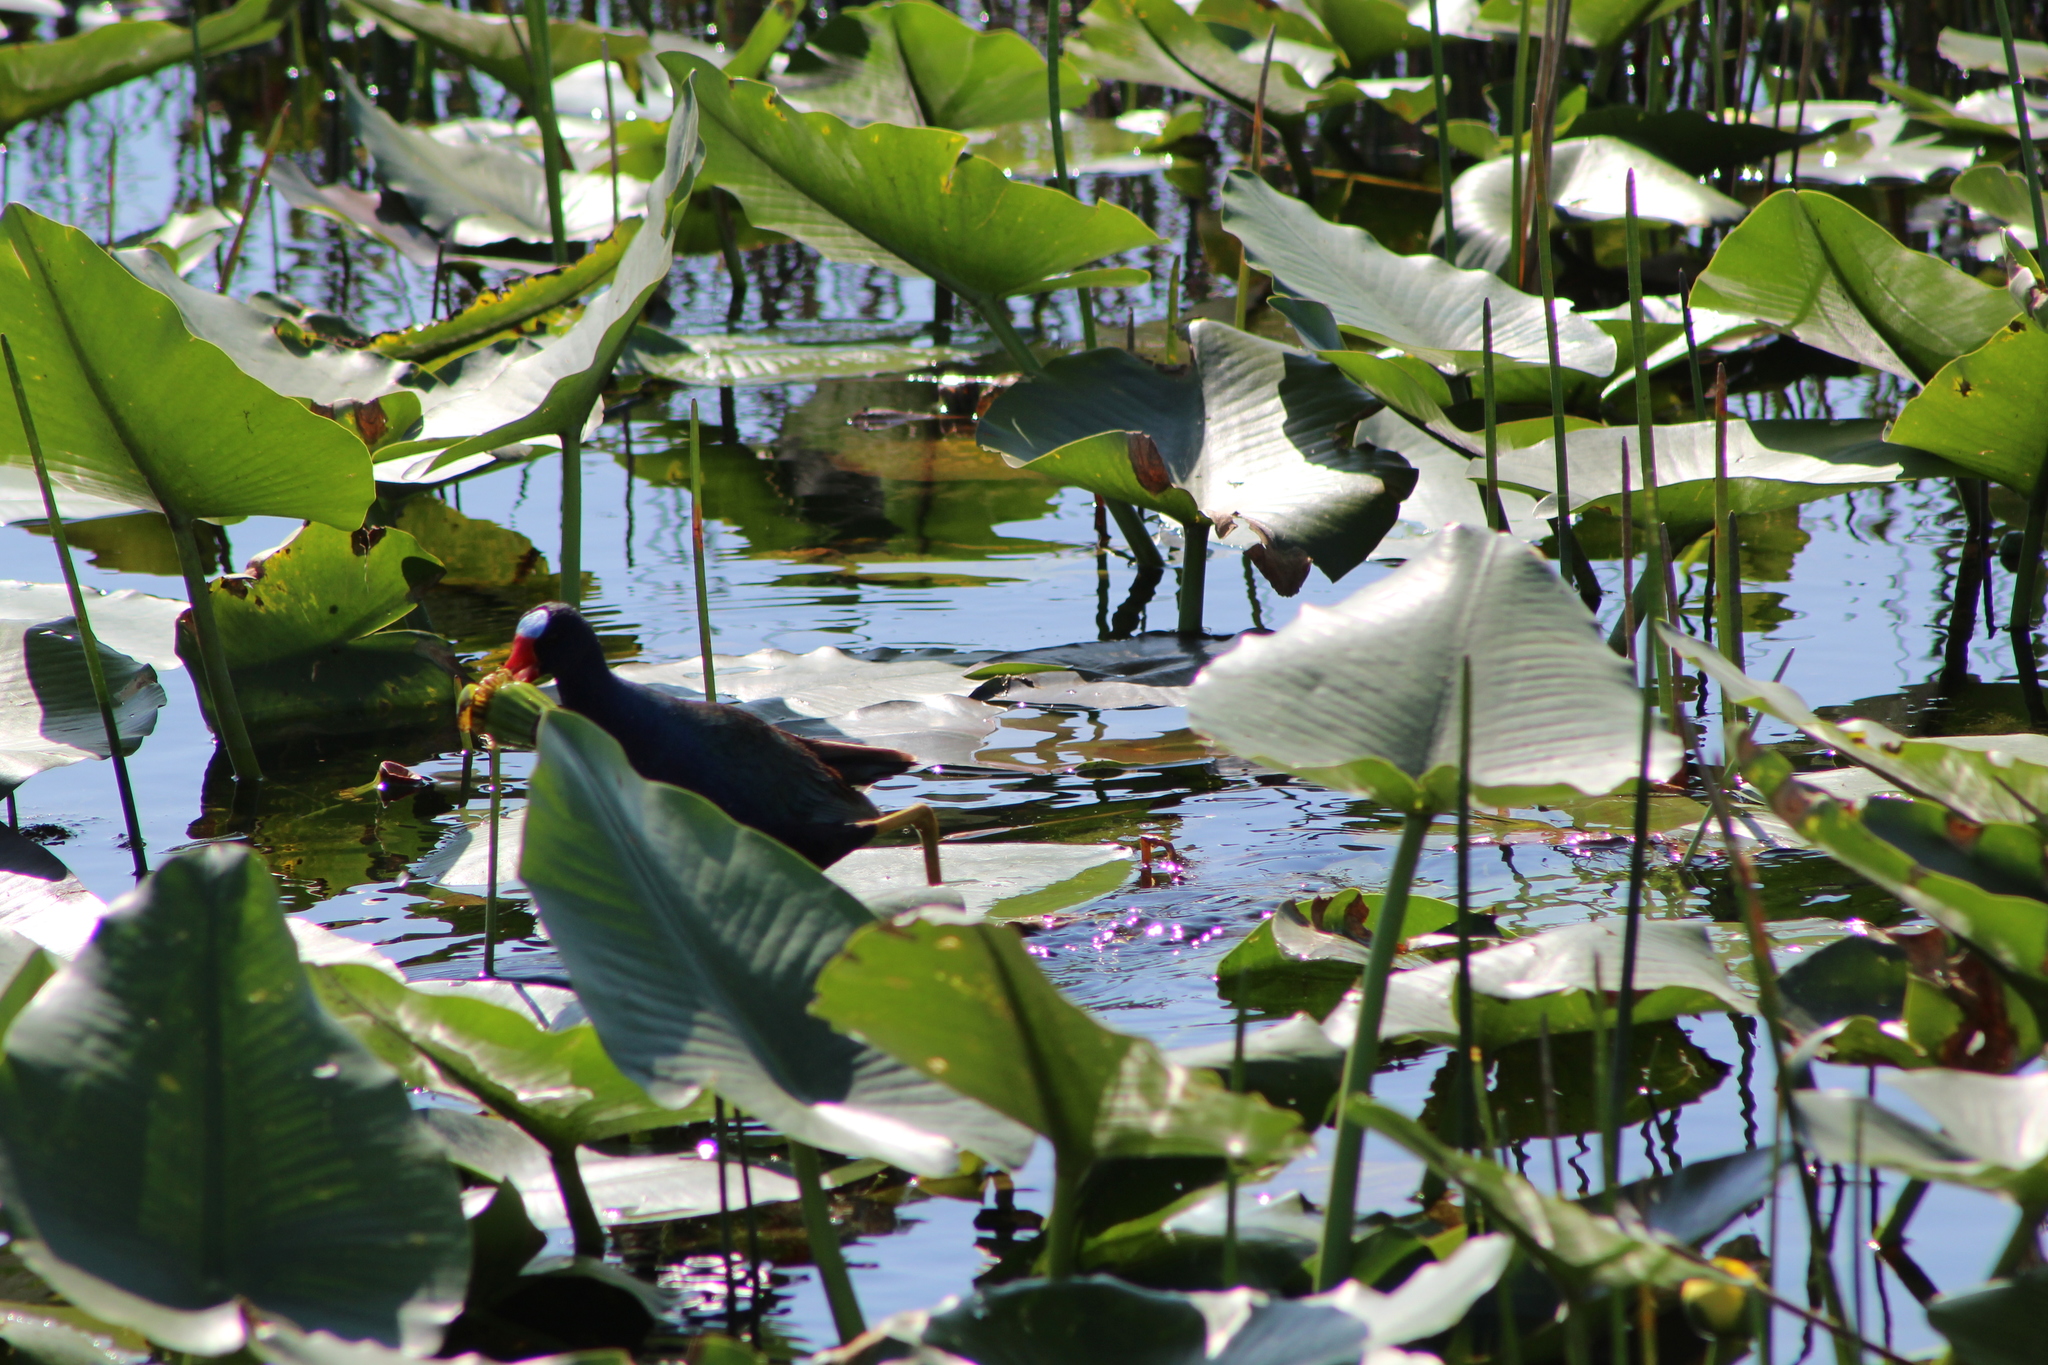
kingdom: Animalia
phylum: Chordata
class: Aves
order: Gruiformes
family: Rallidae
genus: Porphyrio
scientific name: Porphyrio martinica
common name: Purple gallinule
